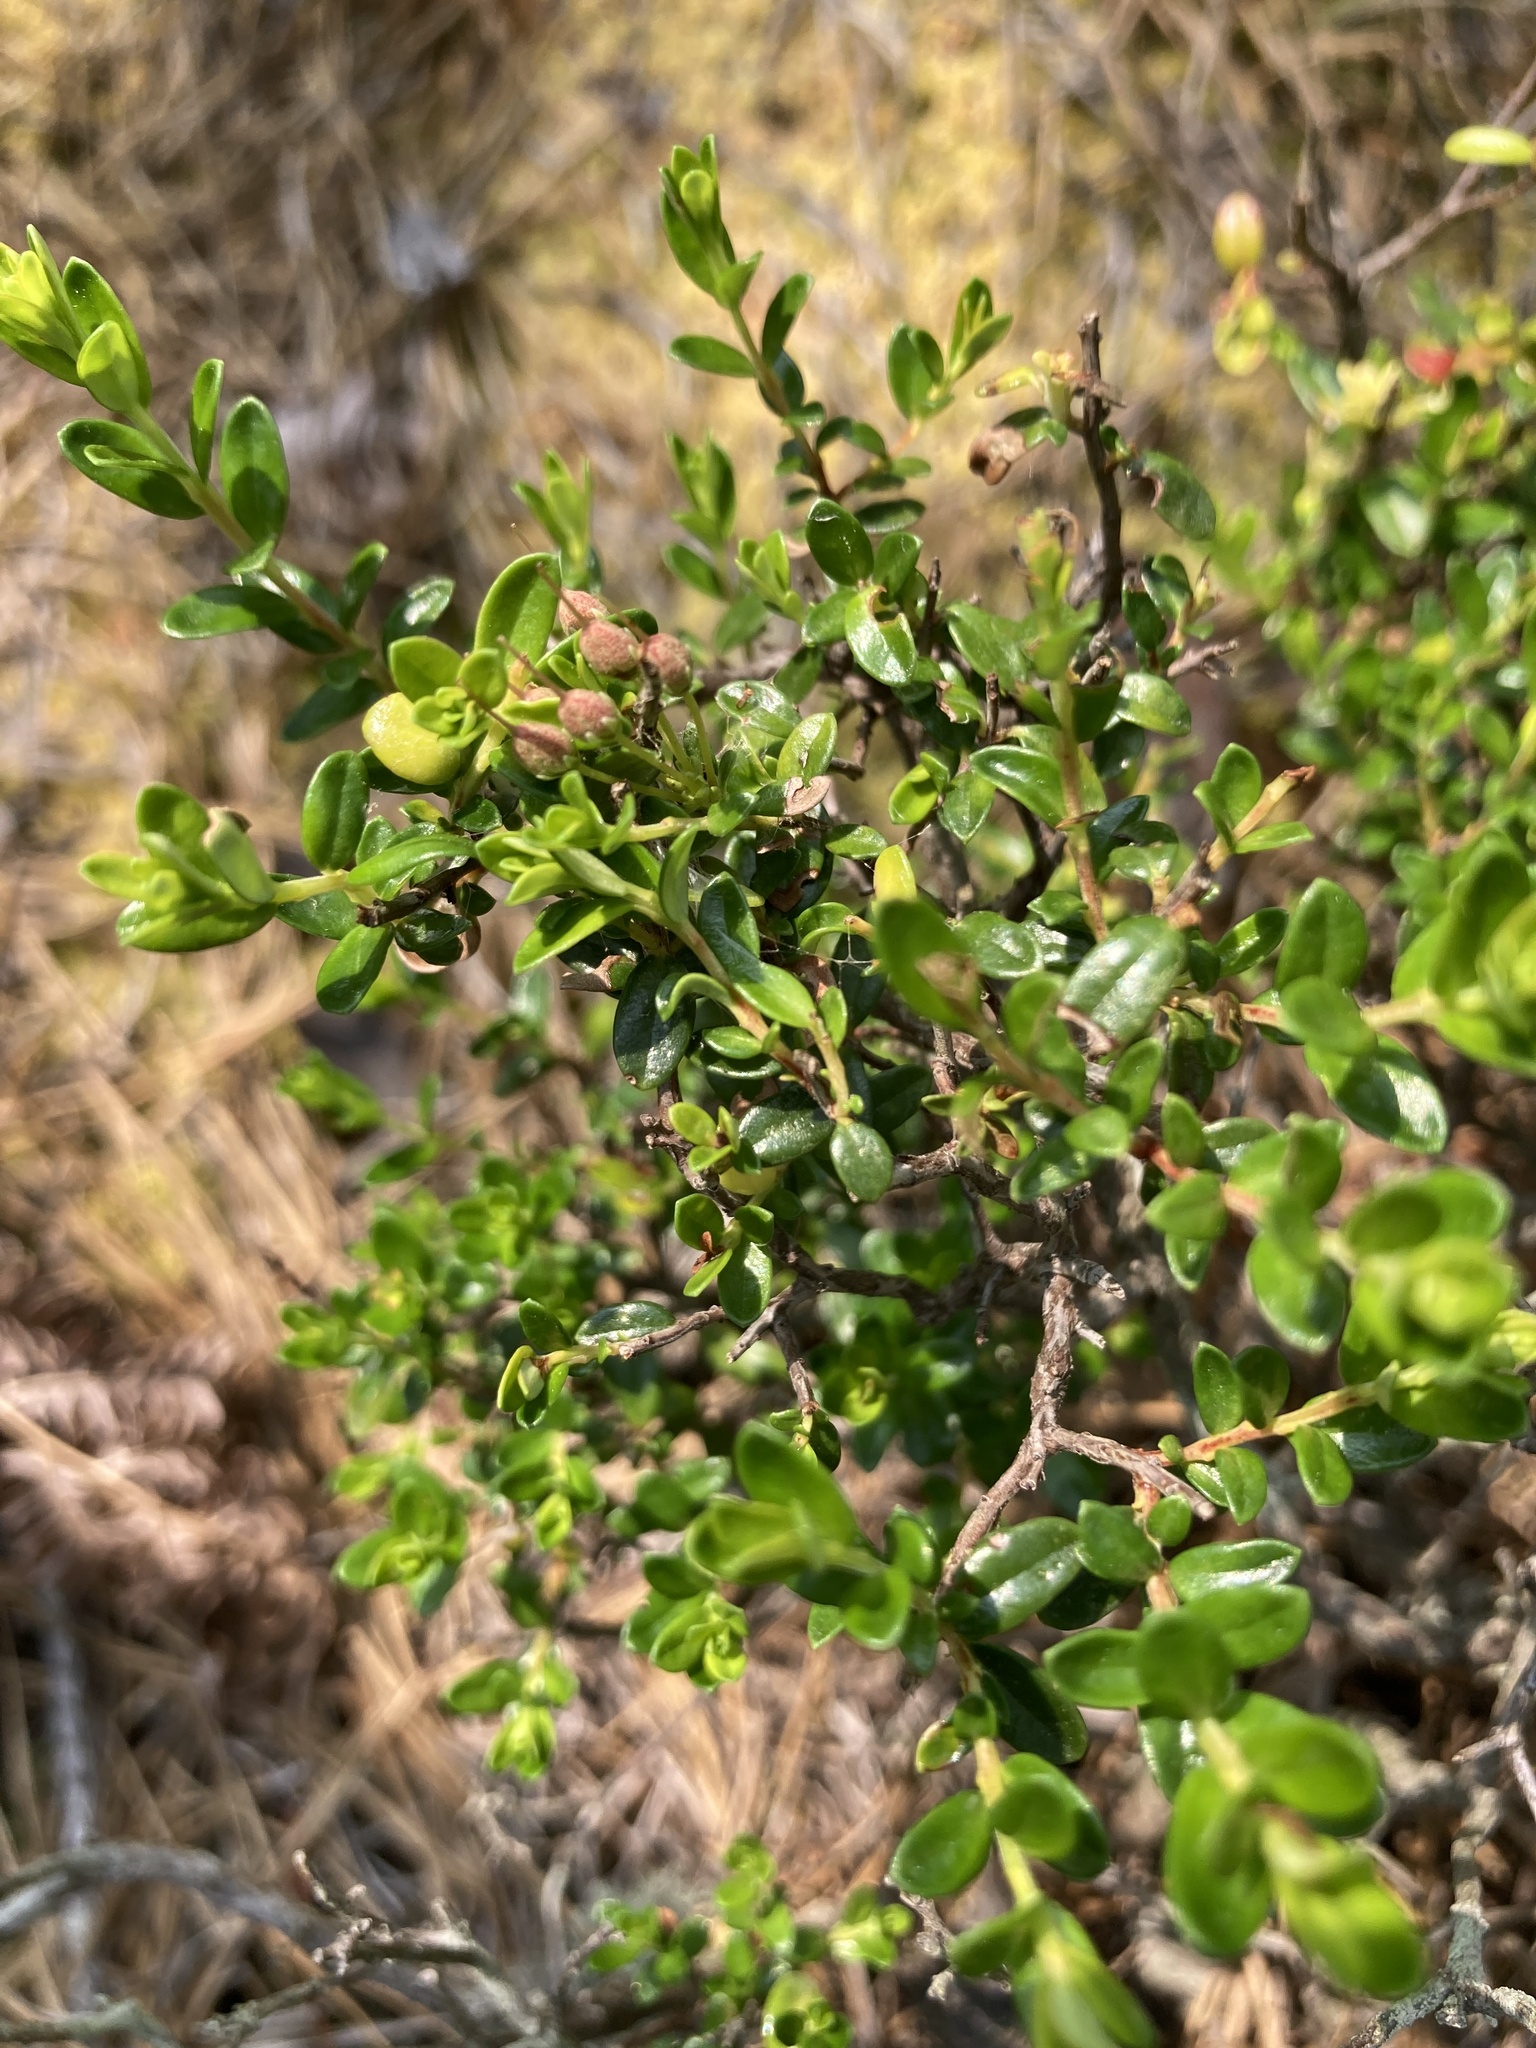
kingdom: Plantae
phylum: Tracheophyta
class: Magnoliopsida
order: Ericales
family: Ericaceae
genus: Kalmia
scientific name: Kalmia buxifolia
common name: Sandmyrtle
